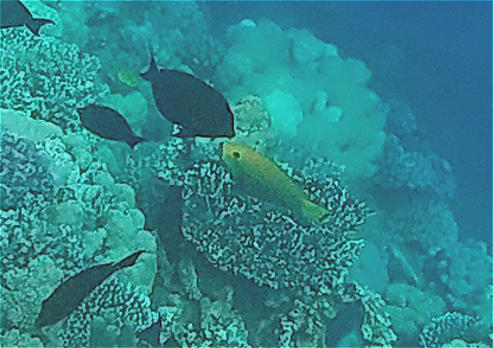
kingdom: Animalia
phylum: Chordata
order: Perciformes
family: Scaridae
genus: Chlorurus
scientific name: Chlorurus gibbus
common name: Heavybeak parrotfish
